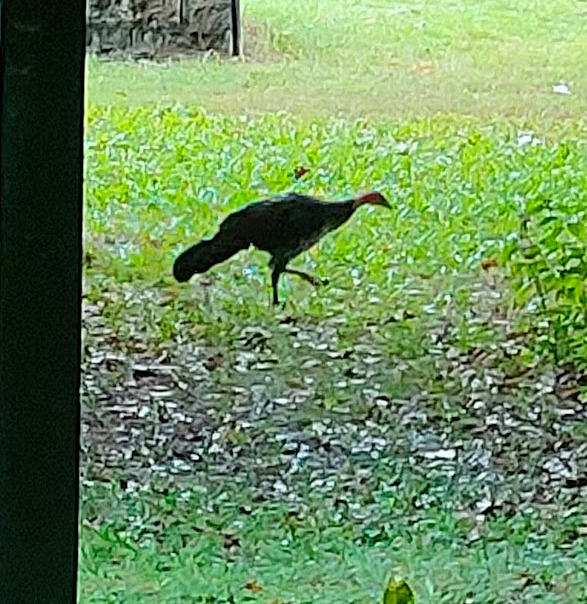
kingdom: Animalia
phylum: Chordata
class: Aves
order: Galliformes
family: Megapodiidae
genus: Alectura
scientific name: Alectura lathami
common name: Australian brushturkey
